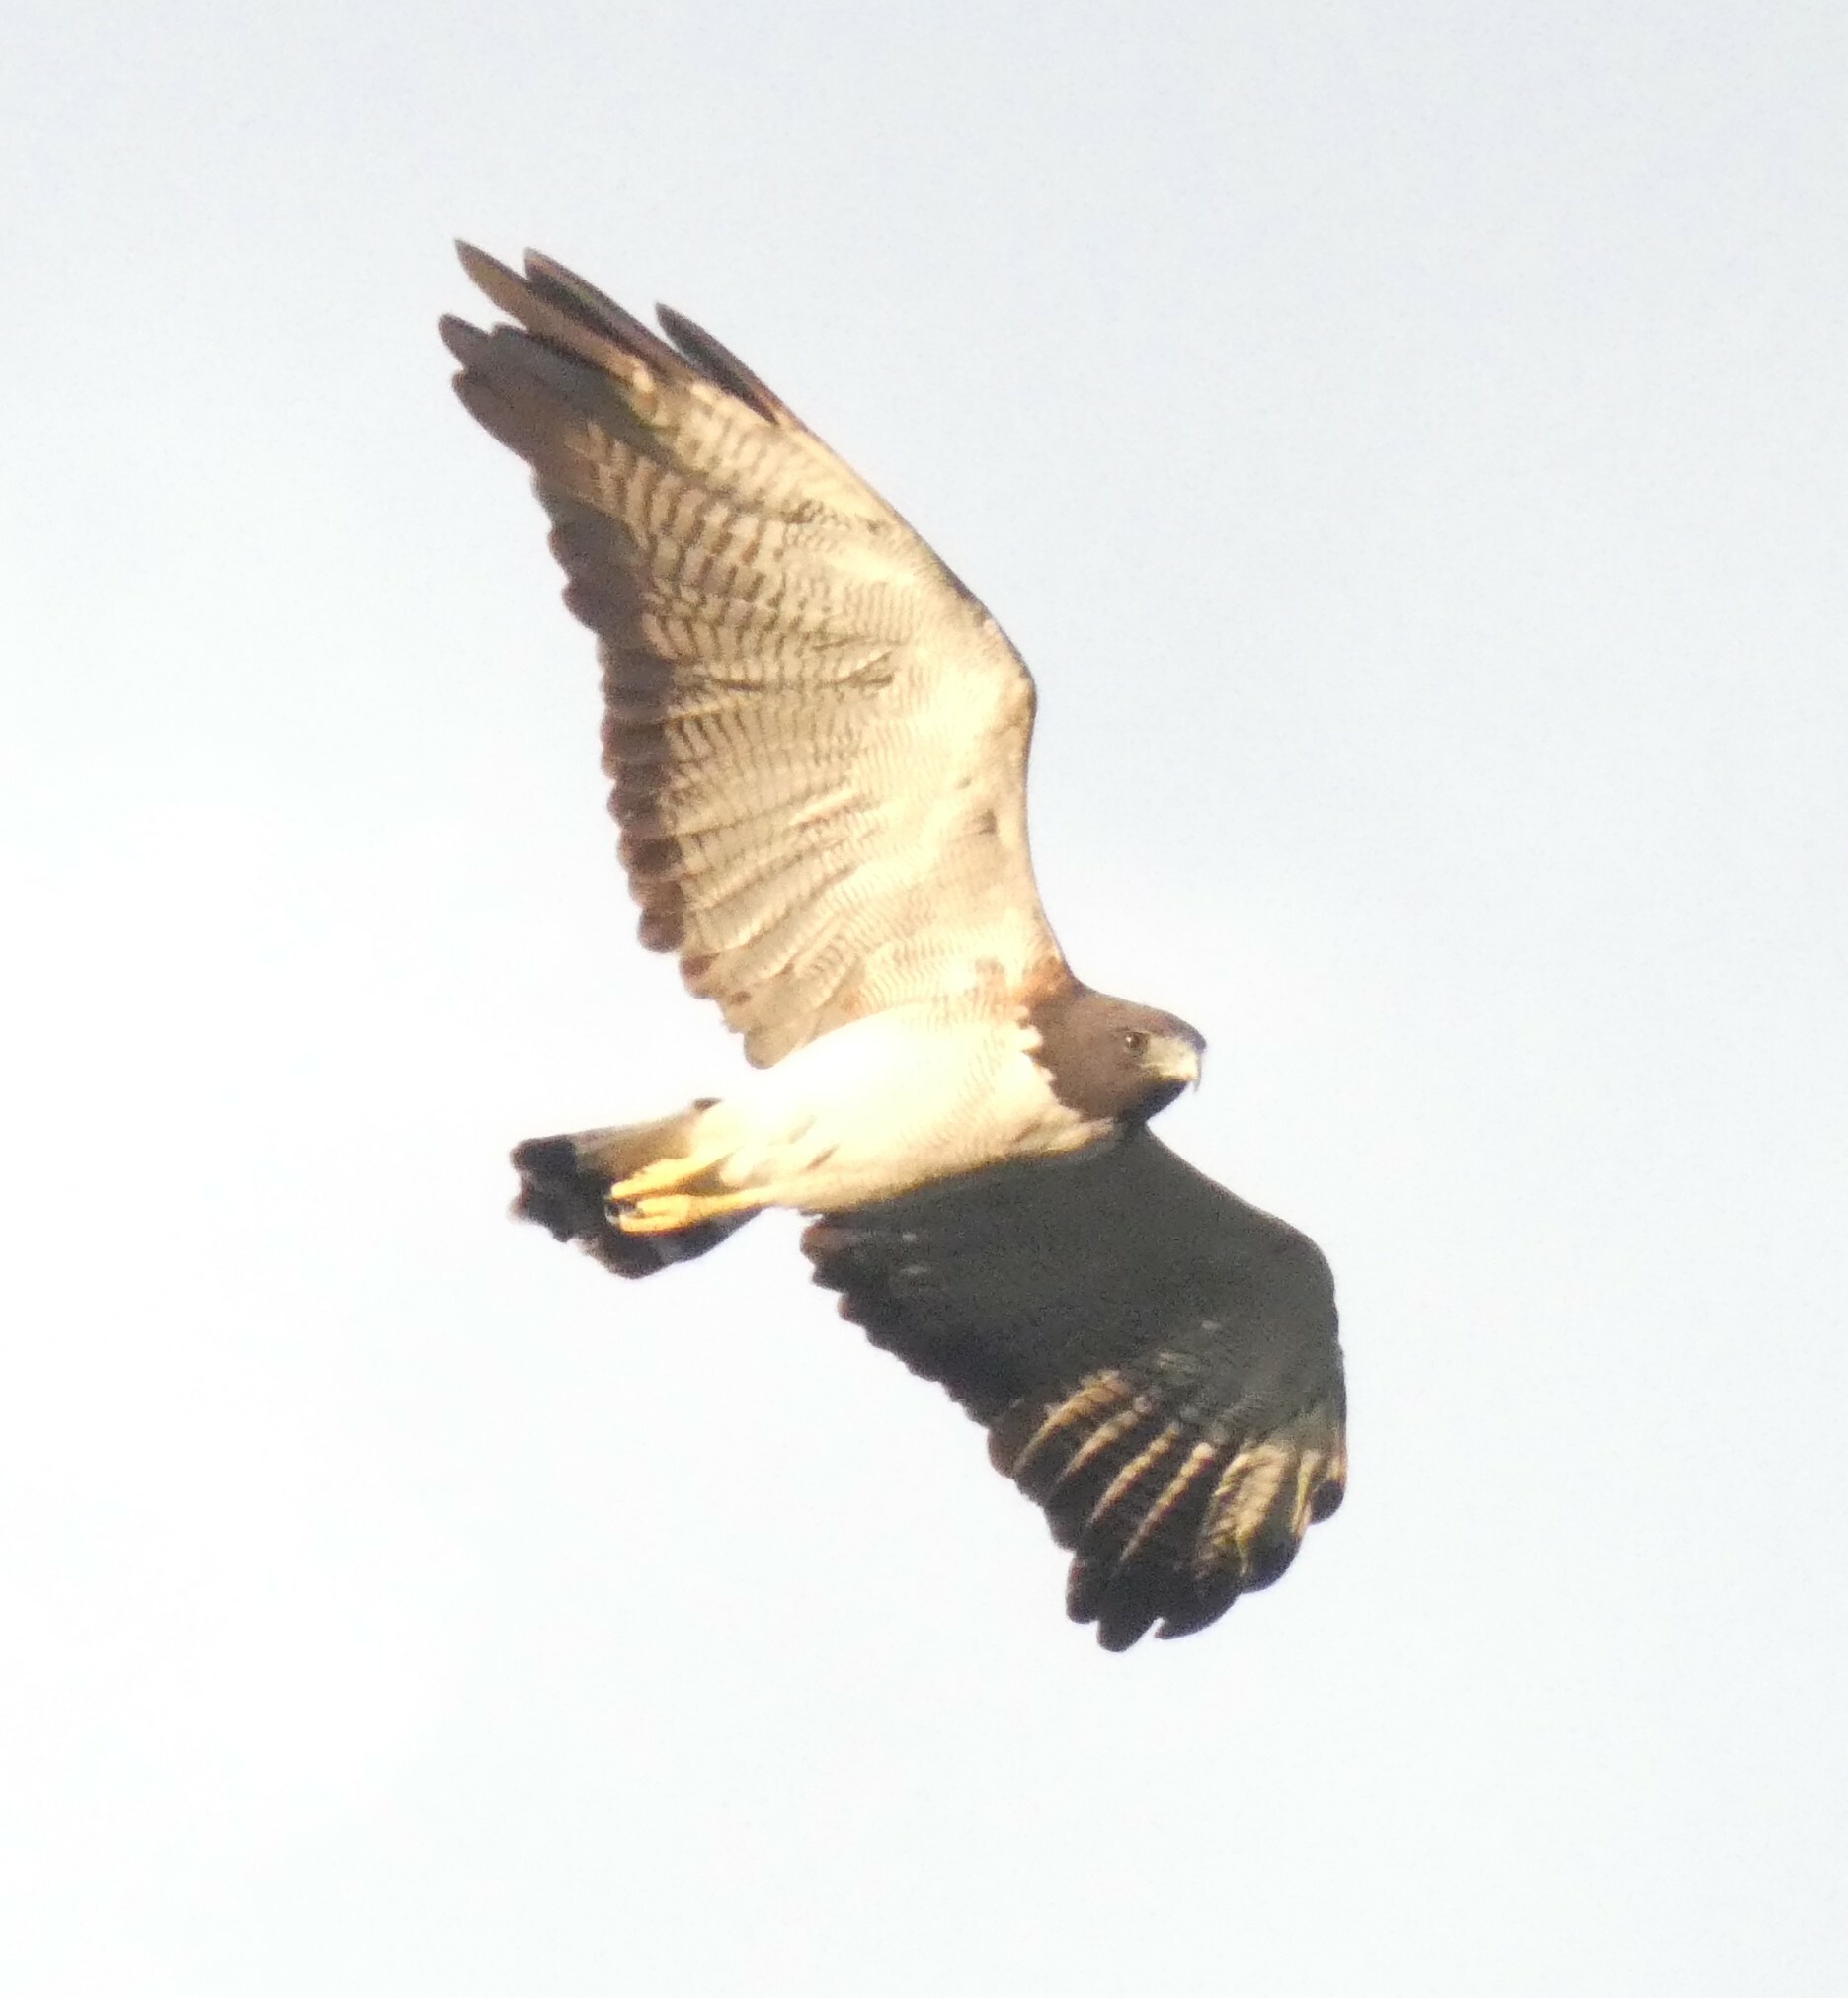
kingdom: Animalia
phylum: Chordata
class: Aves
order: Accipitriformes
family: Accipitridae
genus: Buteo
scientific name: Buteo albicaudatus
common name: White-tailed hawk
